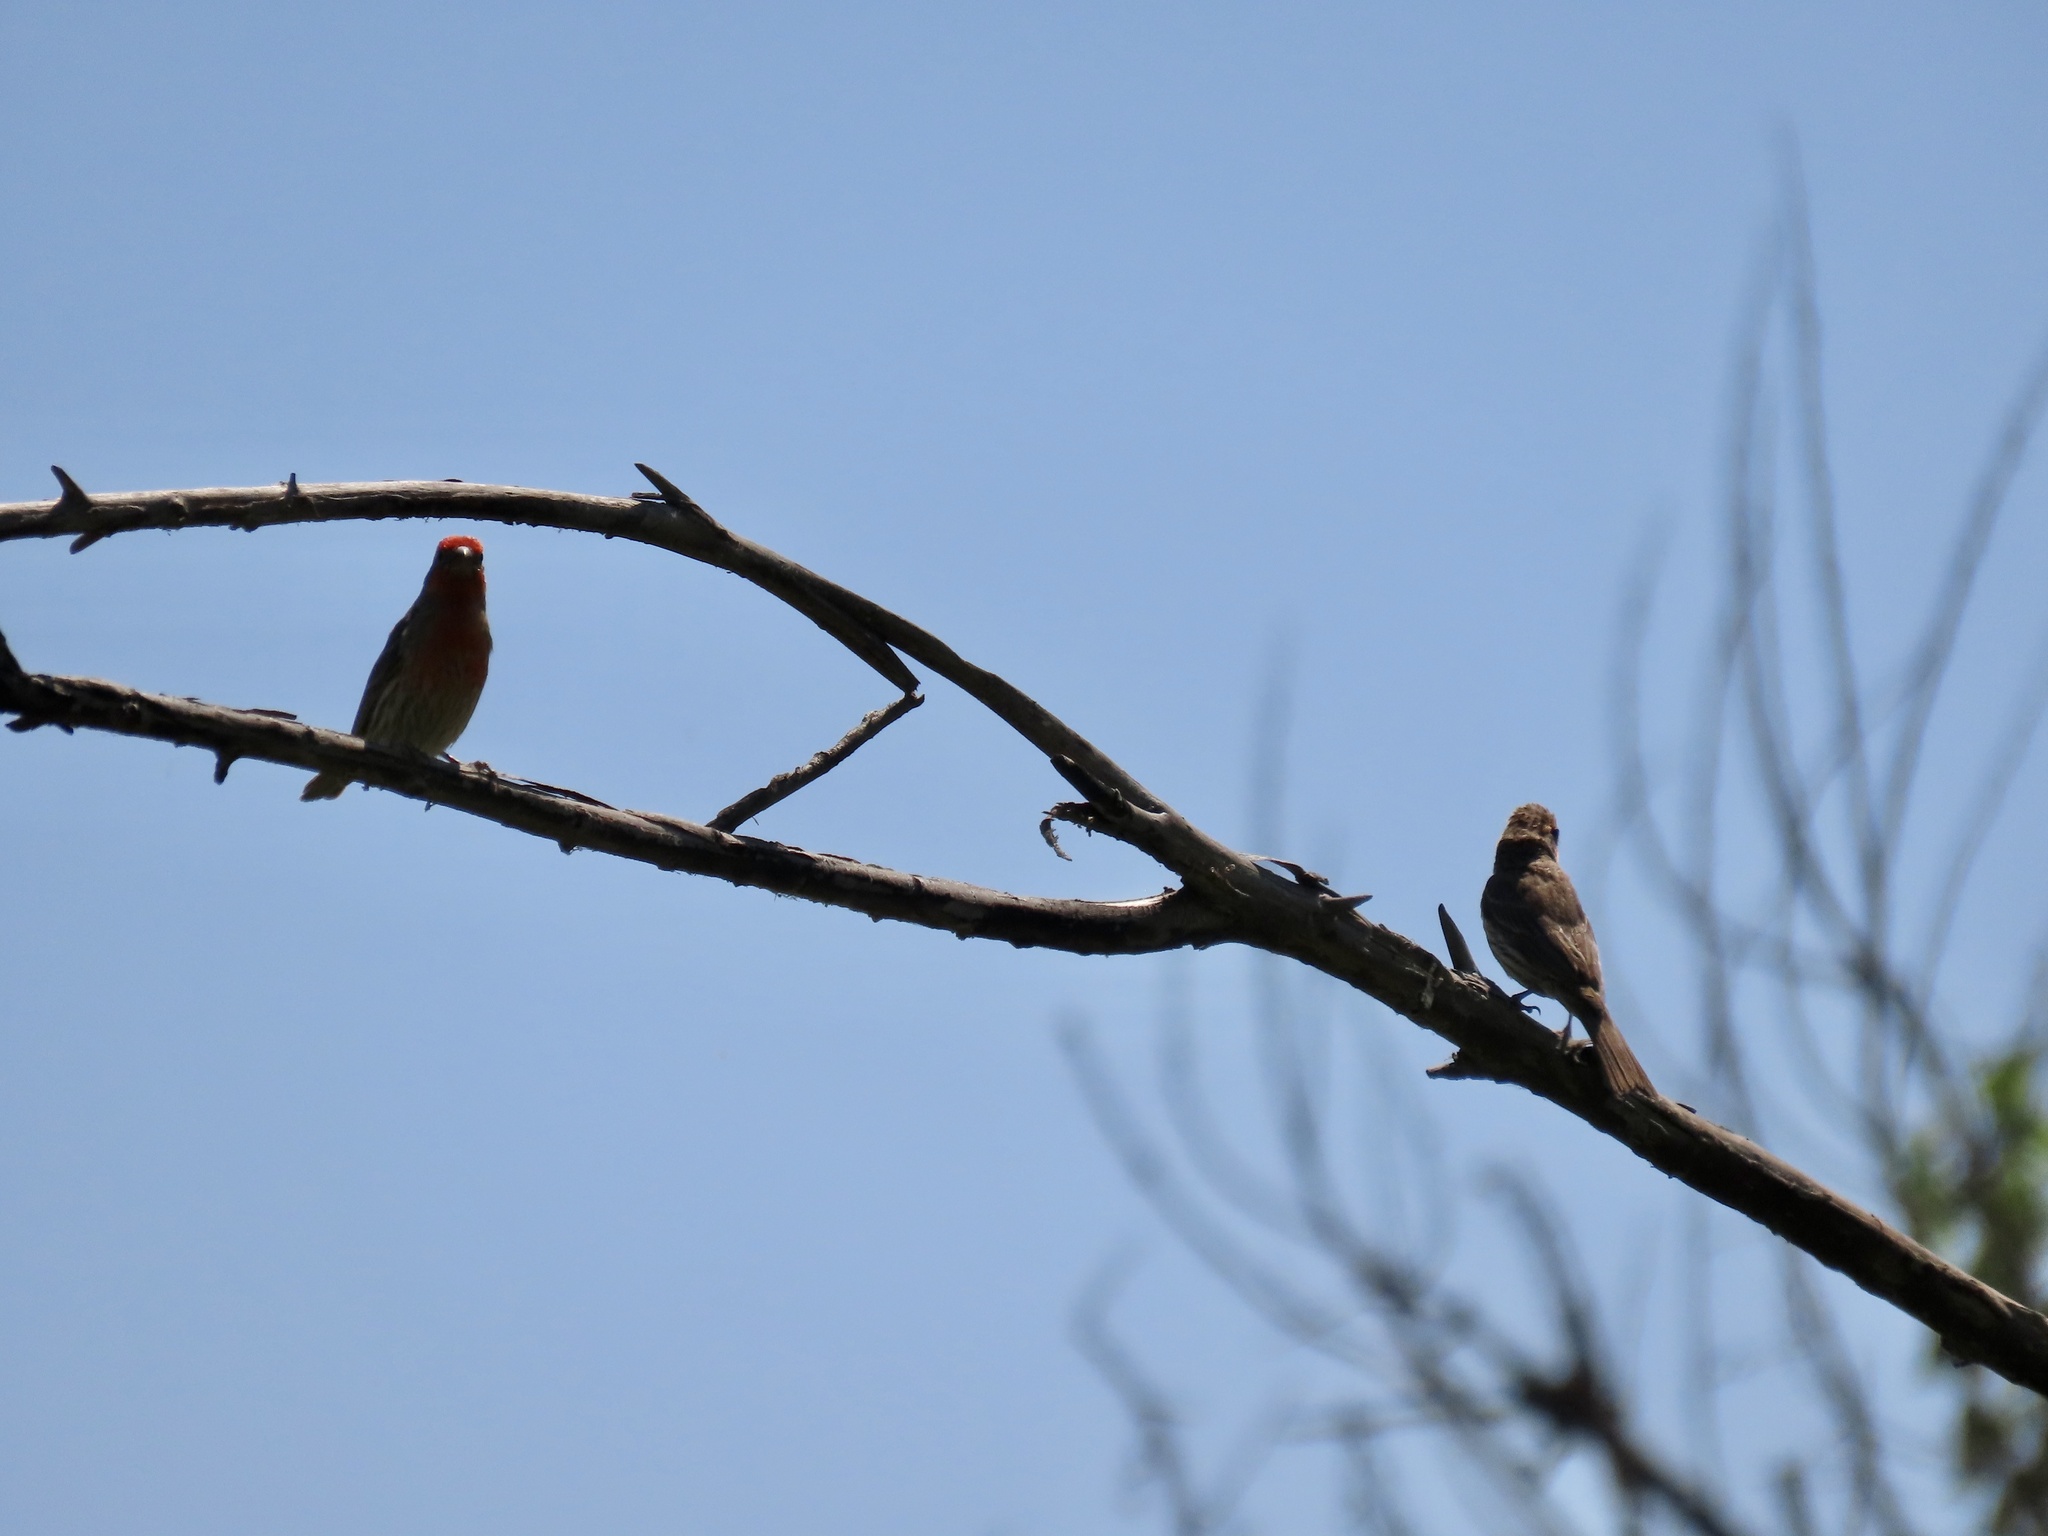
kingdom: Animalia
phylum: Chordata
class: Aves
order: Passeriformes
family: Fringillidae
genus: Haemorhous
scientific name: Haemorhous mexicanus
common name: House finch
